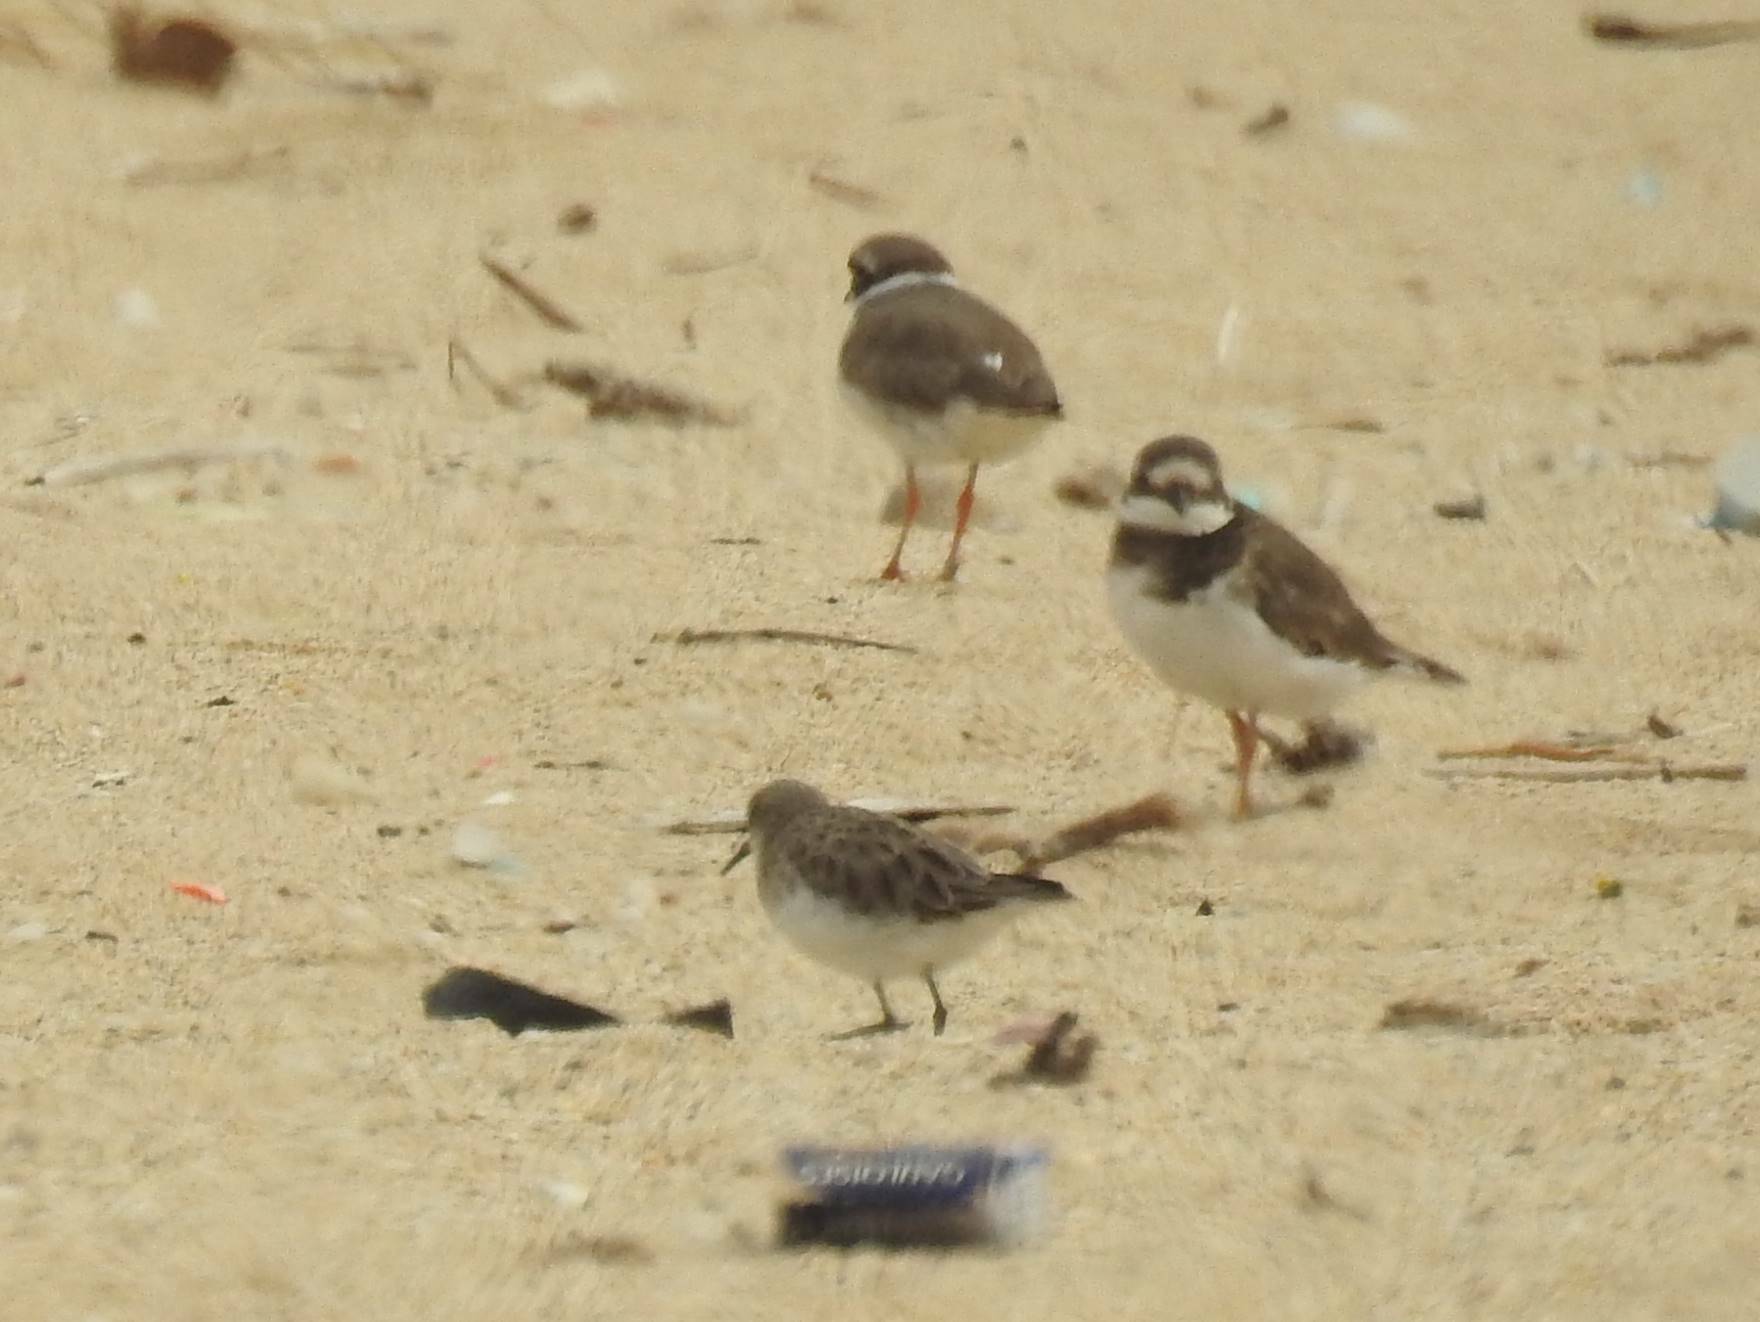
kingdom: Animalia
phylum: Chordata
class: Aves
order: Charadriiformes
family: Charadriidae
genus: Charadrius
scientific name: Charadrius hiaticula
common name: Common ringed plover
